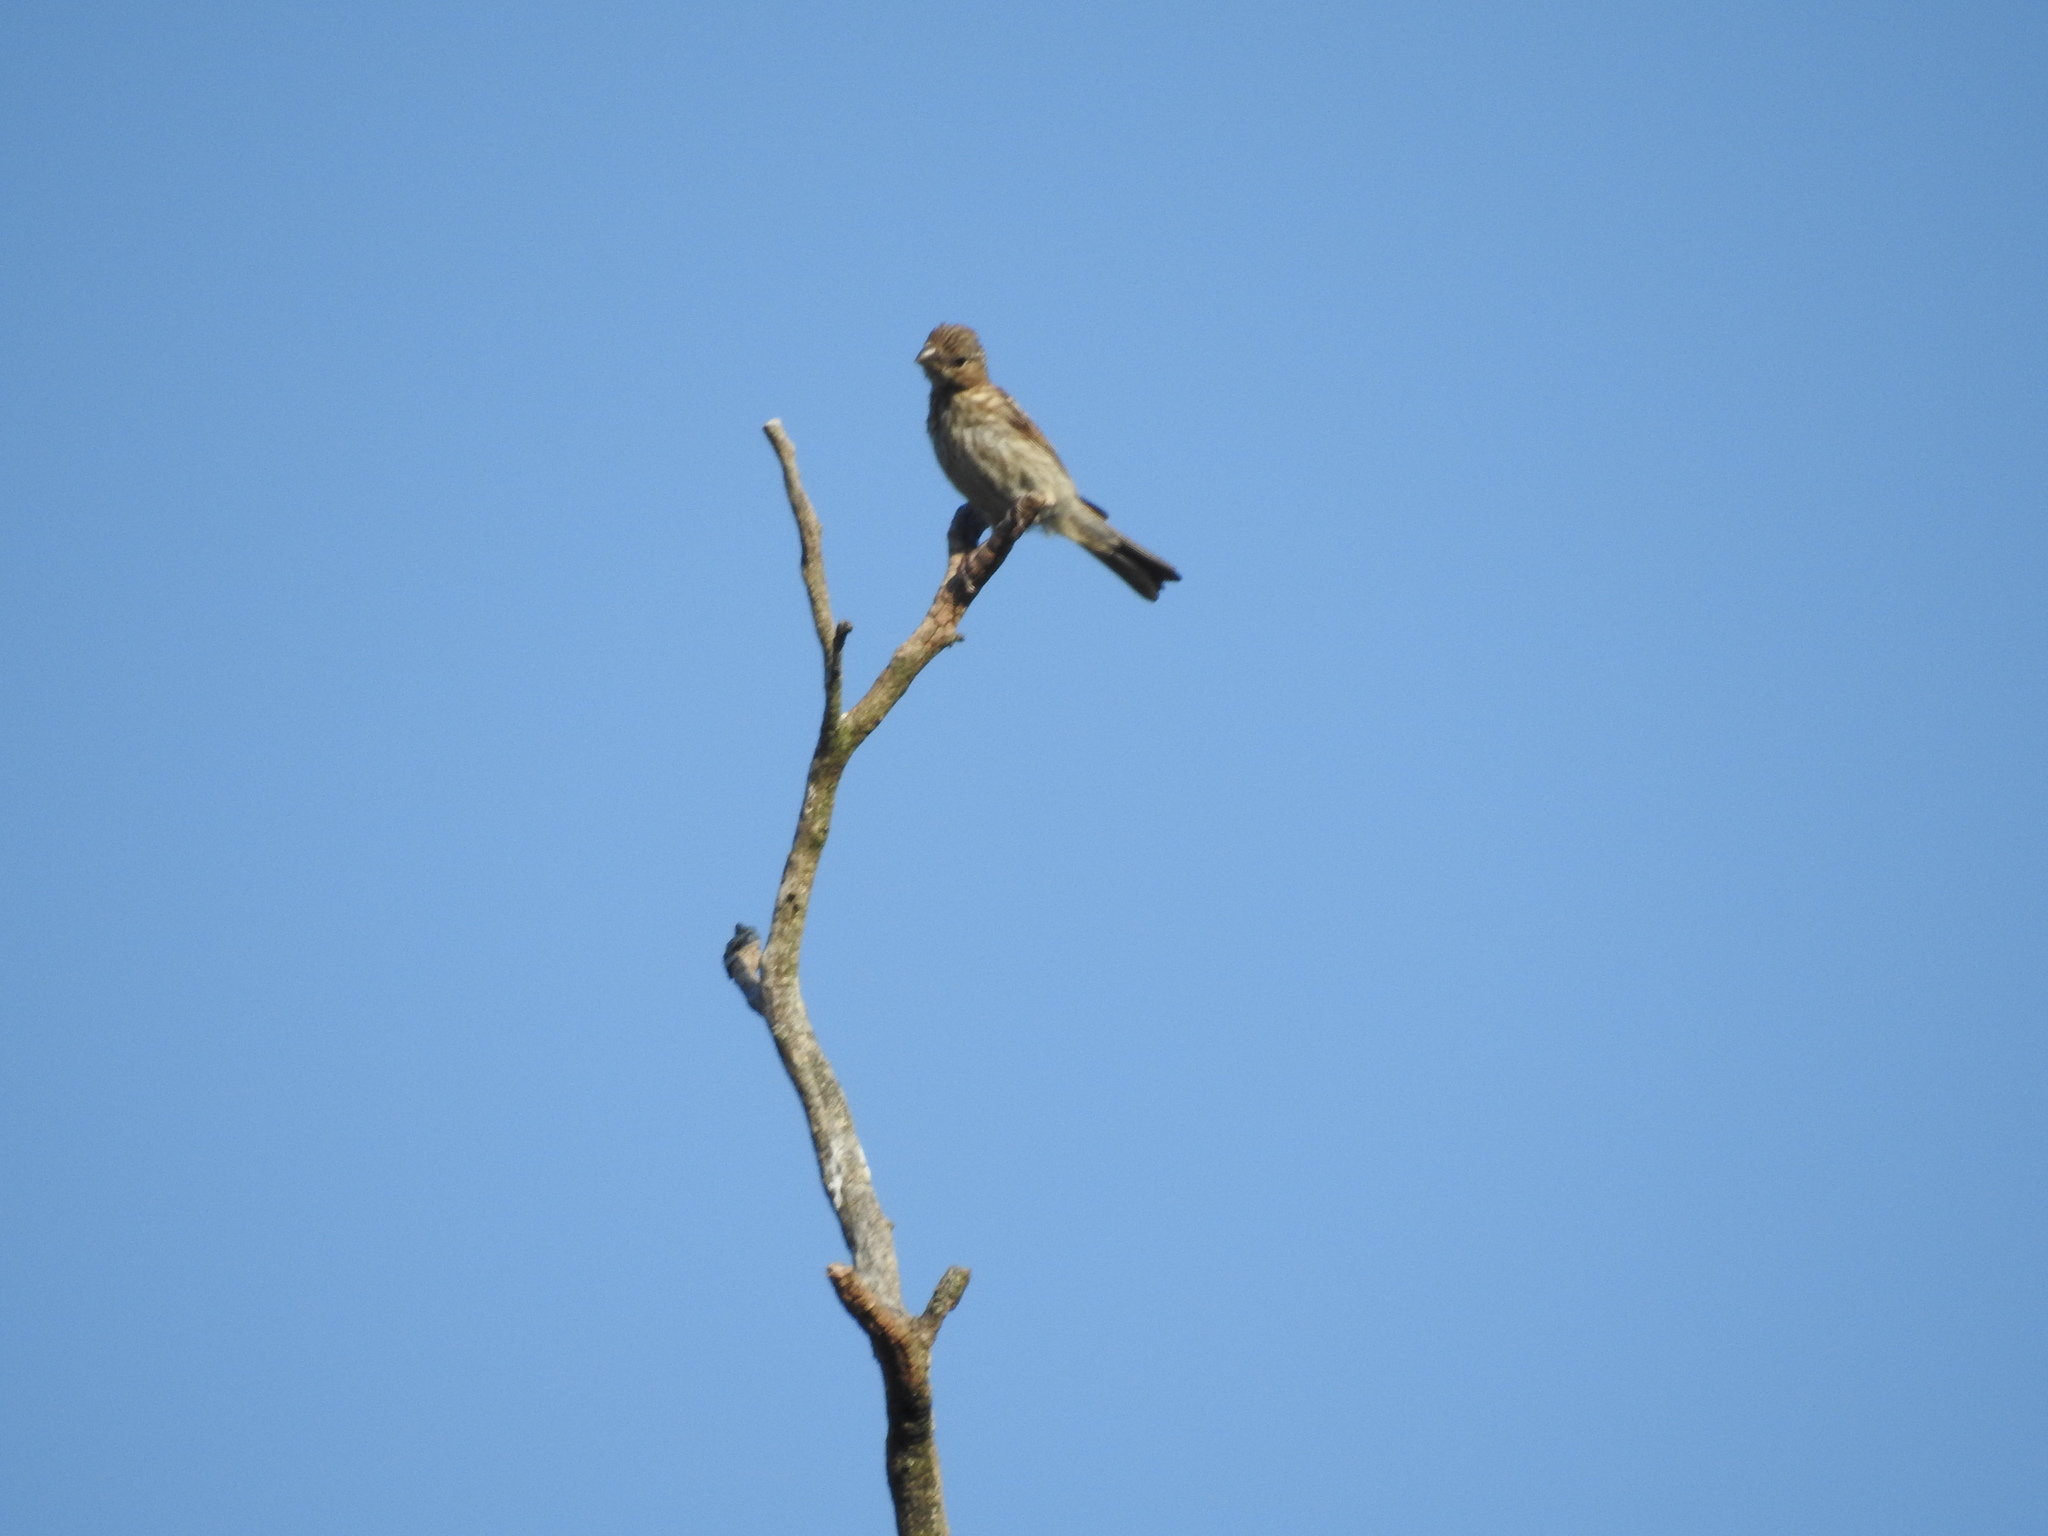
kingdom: Animalia
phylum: Chordata
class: Aves
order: Passeriformes
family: Fringillidae
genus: Haemorhous
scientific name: Haemorhous mexicanus
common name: House finch
